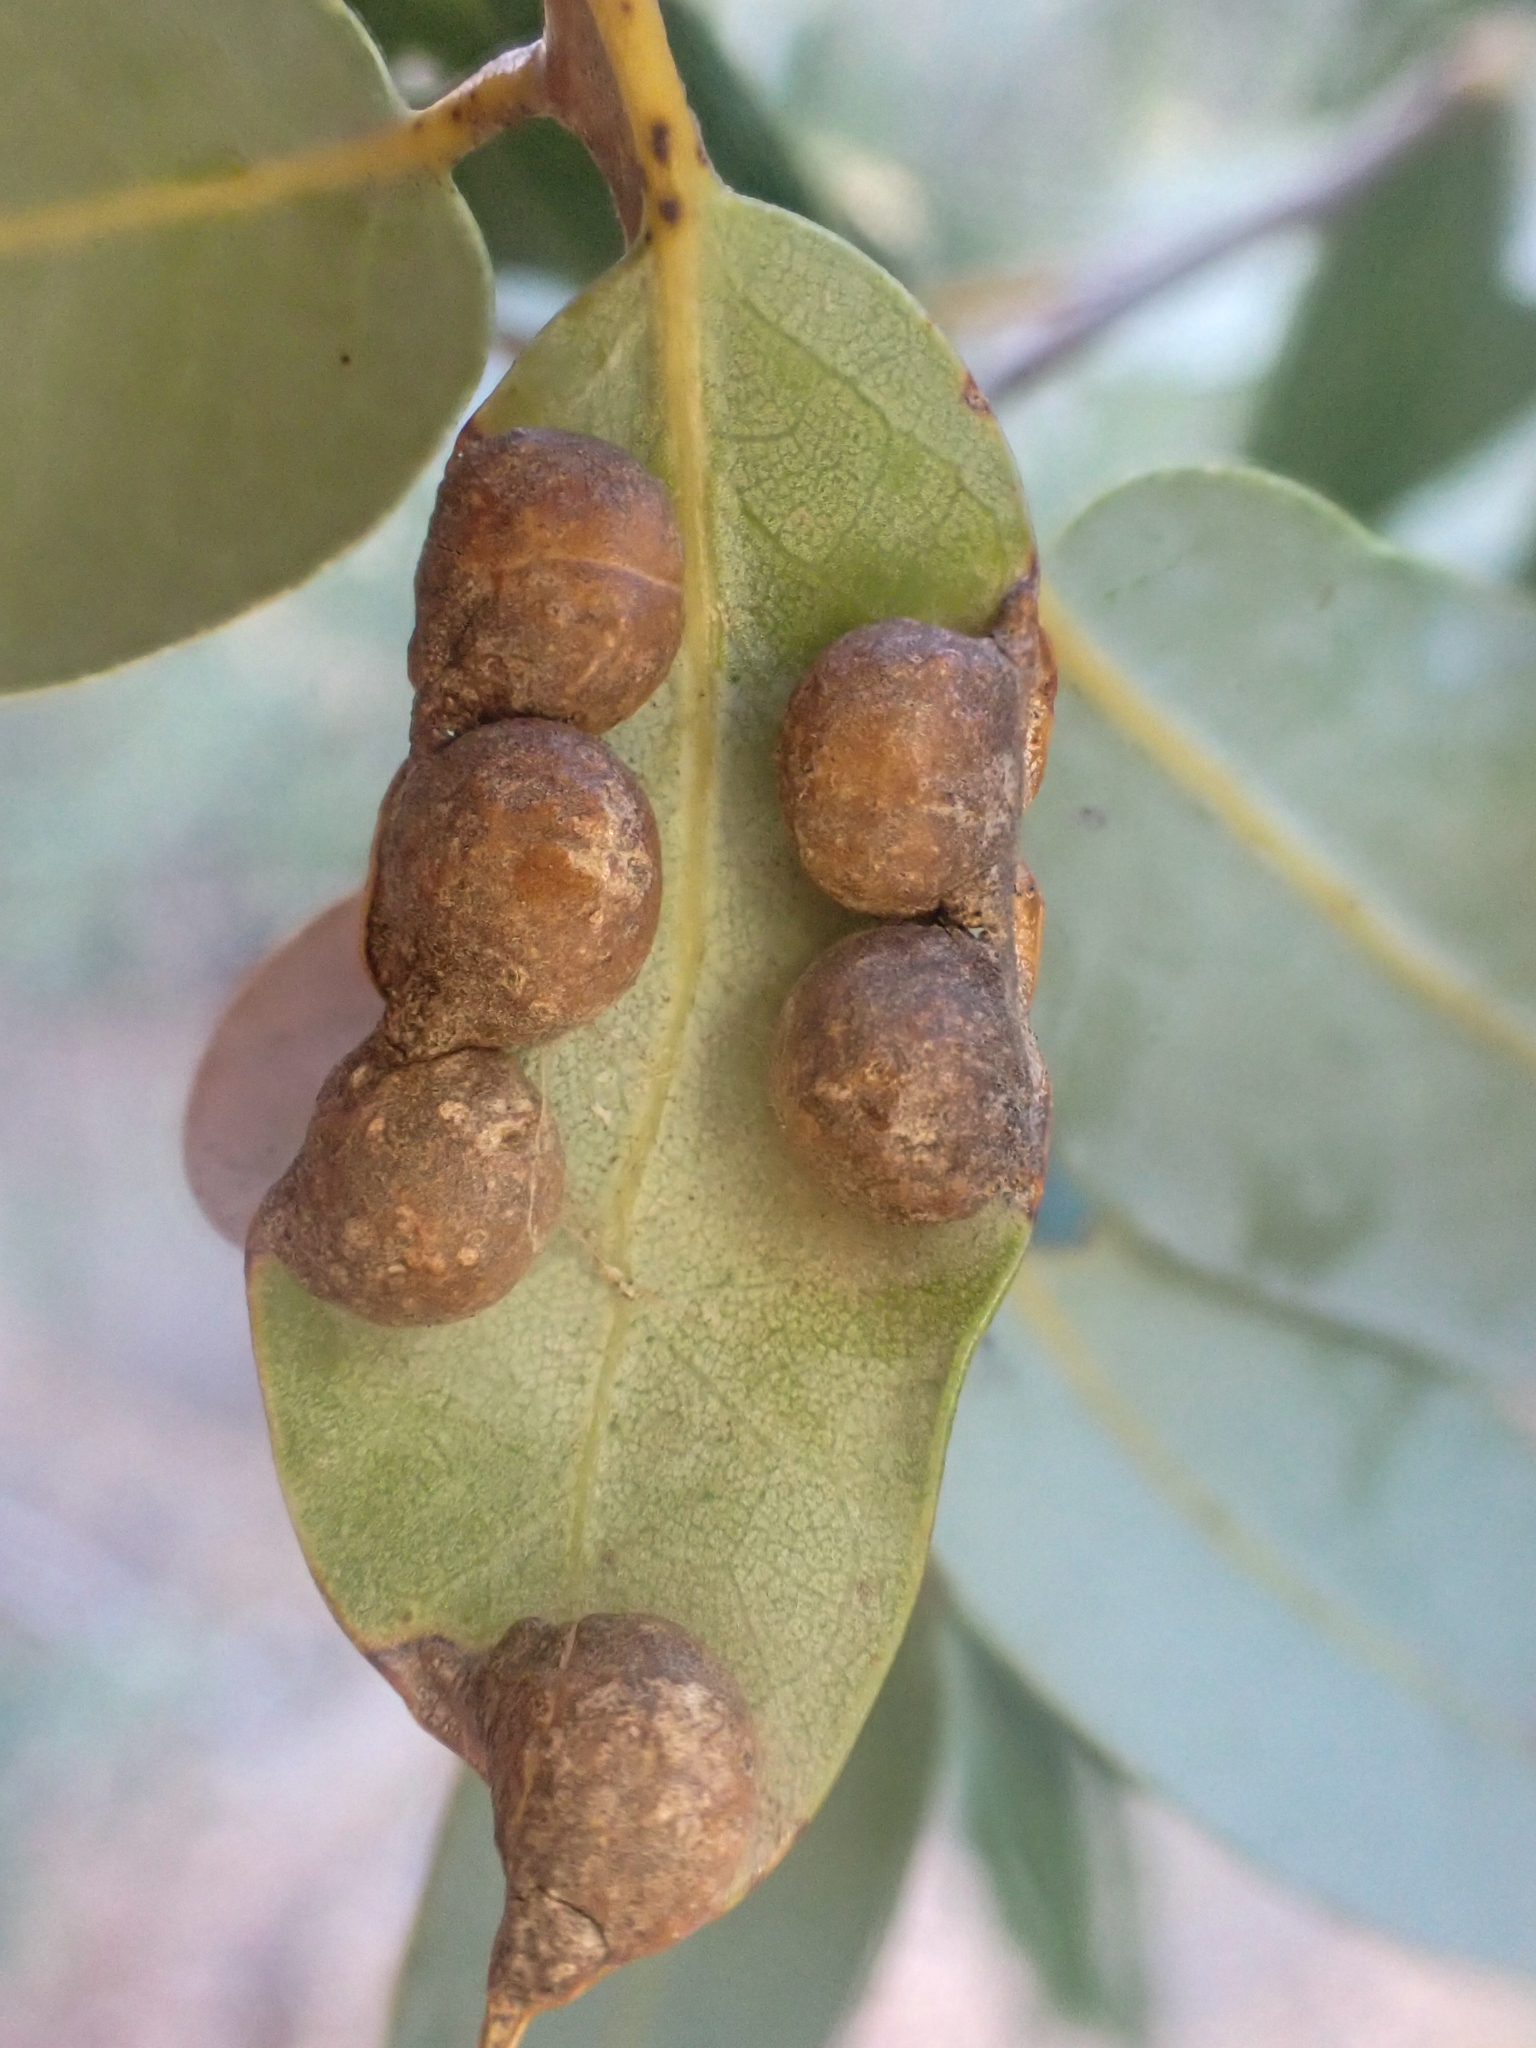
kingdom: Animalia
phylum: Arthropoda
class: Insecta
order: Diptera
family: Cecidomyiidae
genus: Dasineura
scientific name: Dasineura
